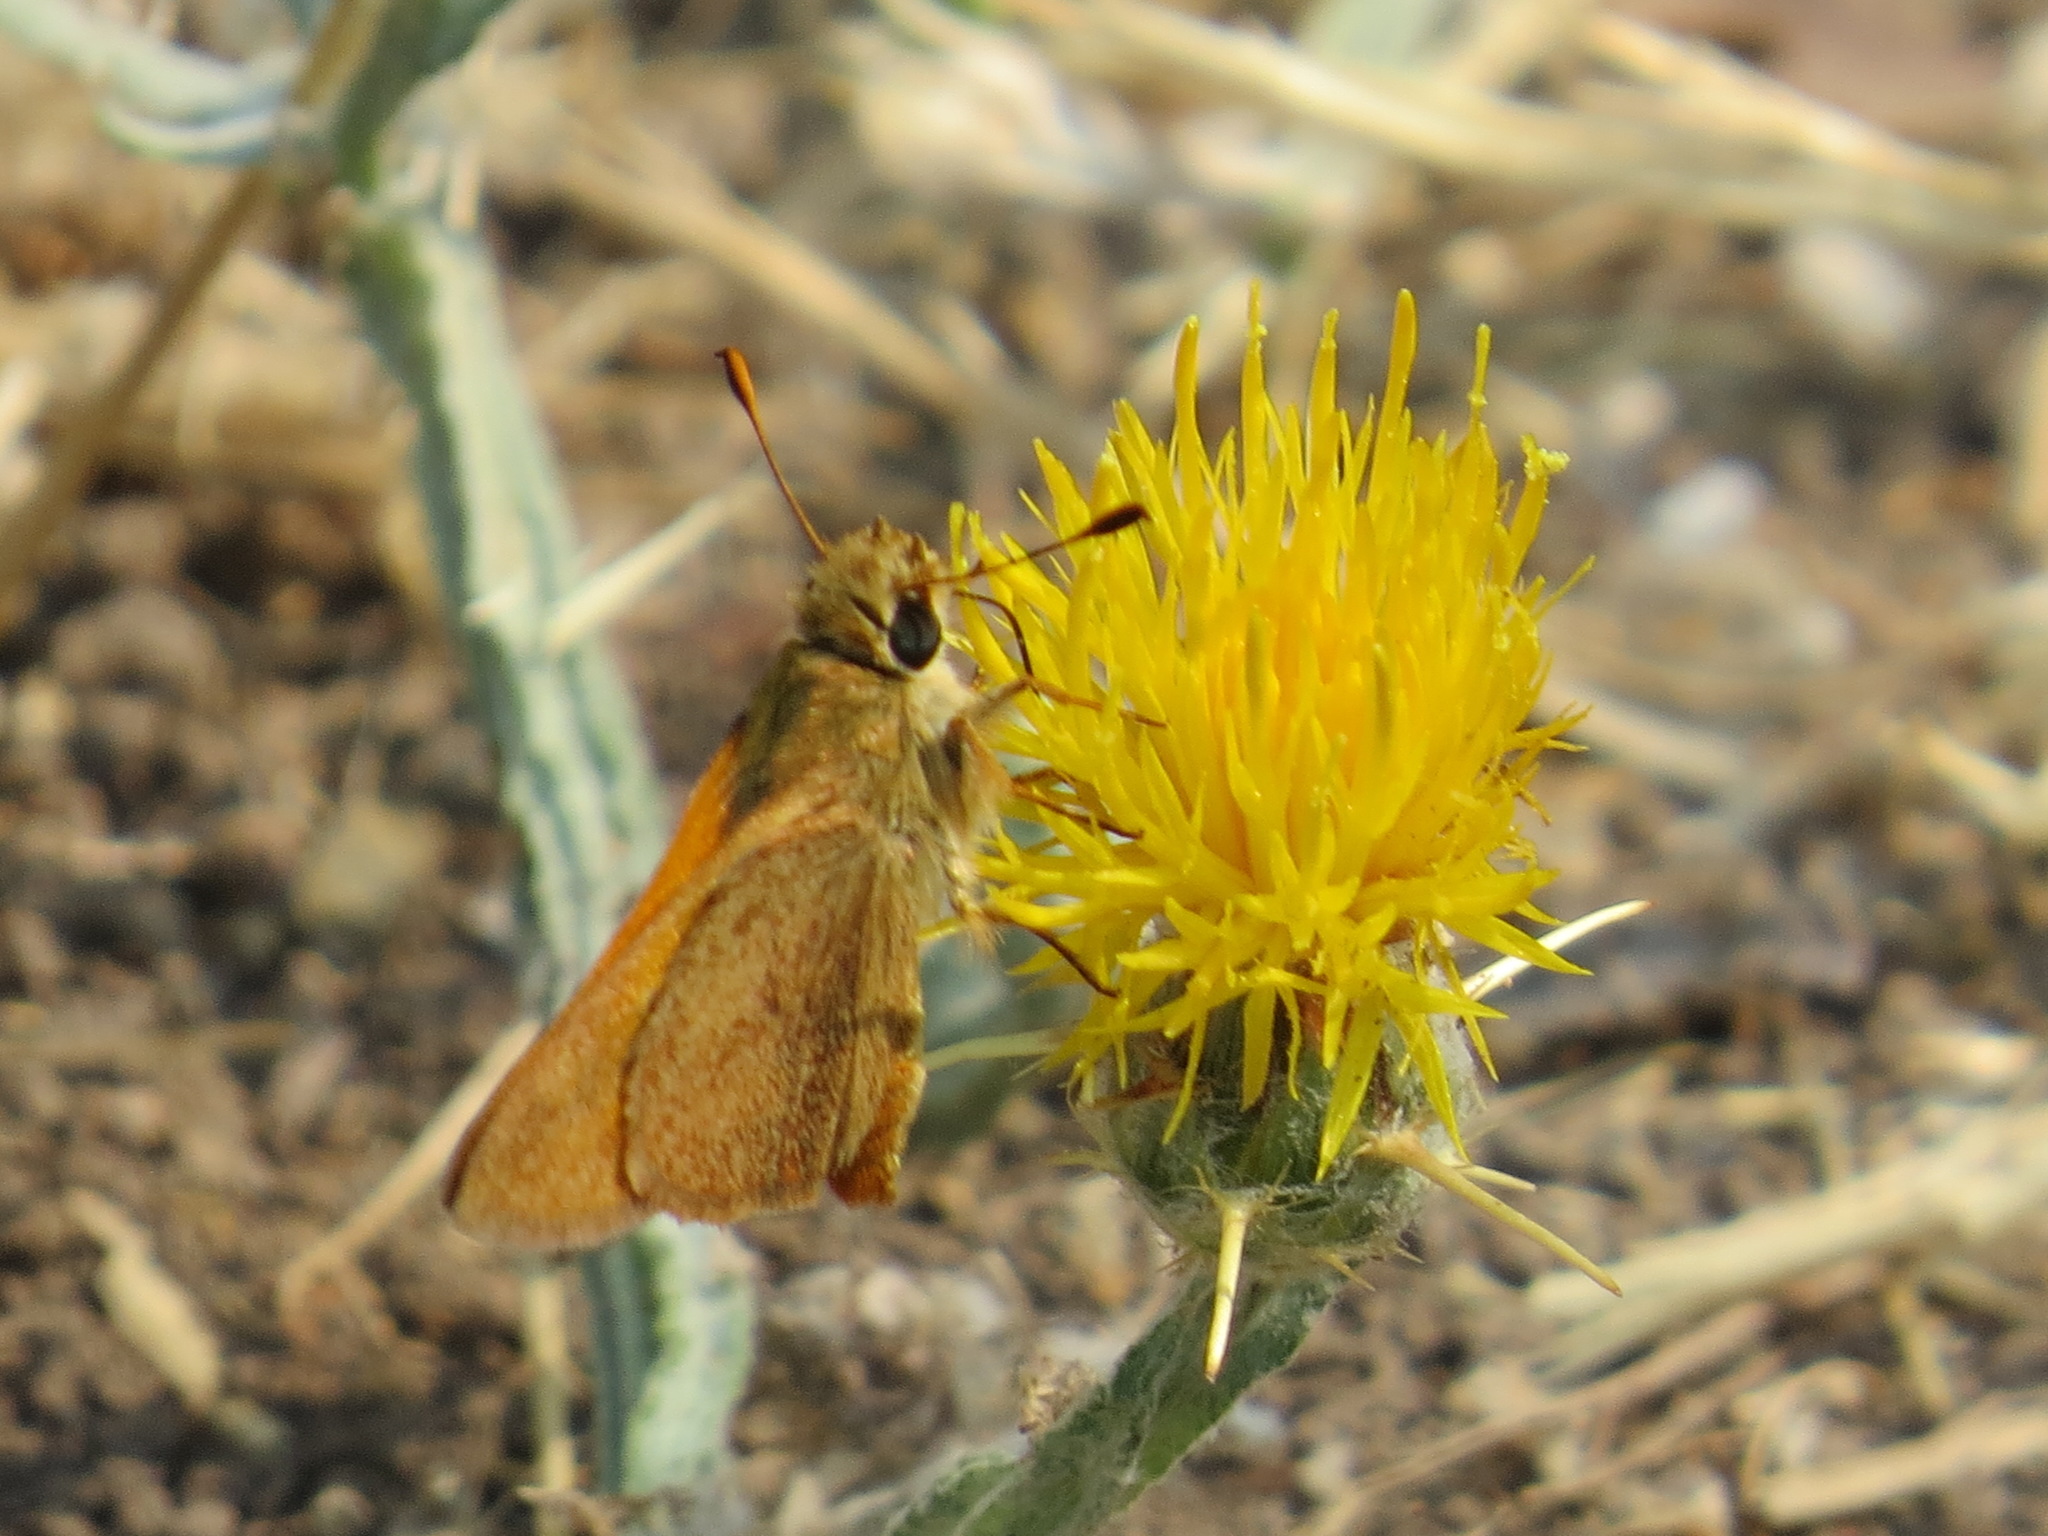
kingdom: Animalia
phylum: Arthropoda
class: Insecta
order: Lepidoptera
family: Hesperiidae
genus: Ochlodes
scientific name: Ochlodes sylvanoides
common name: Woodland skipper
